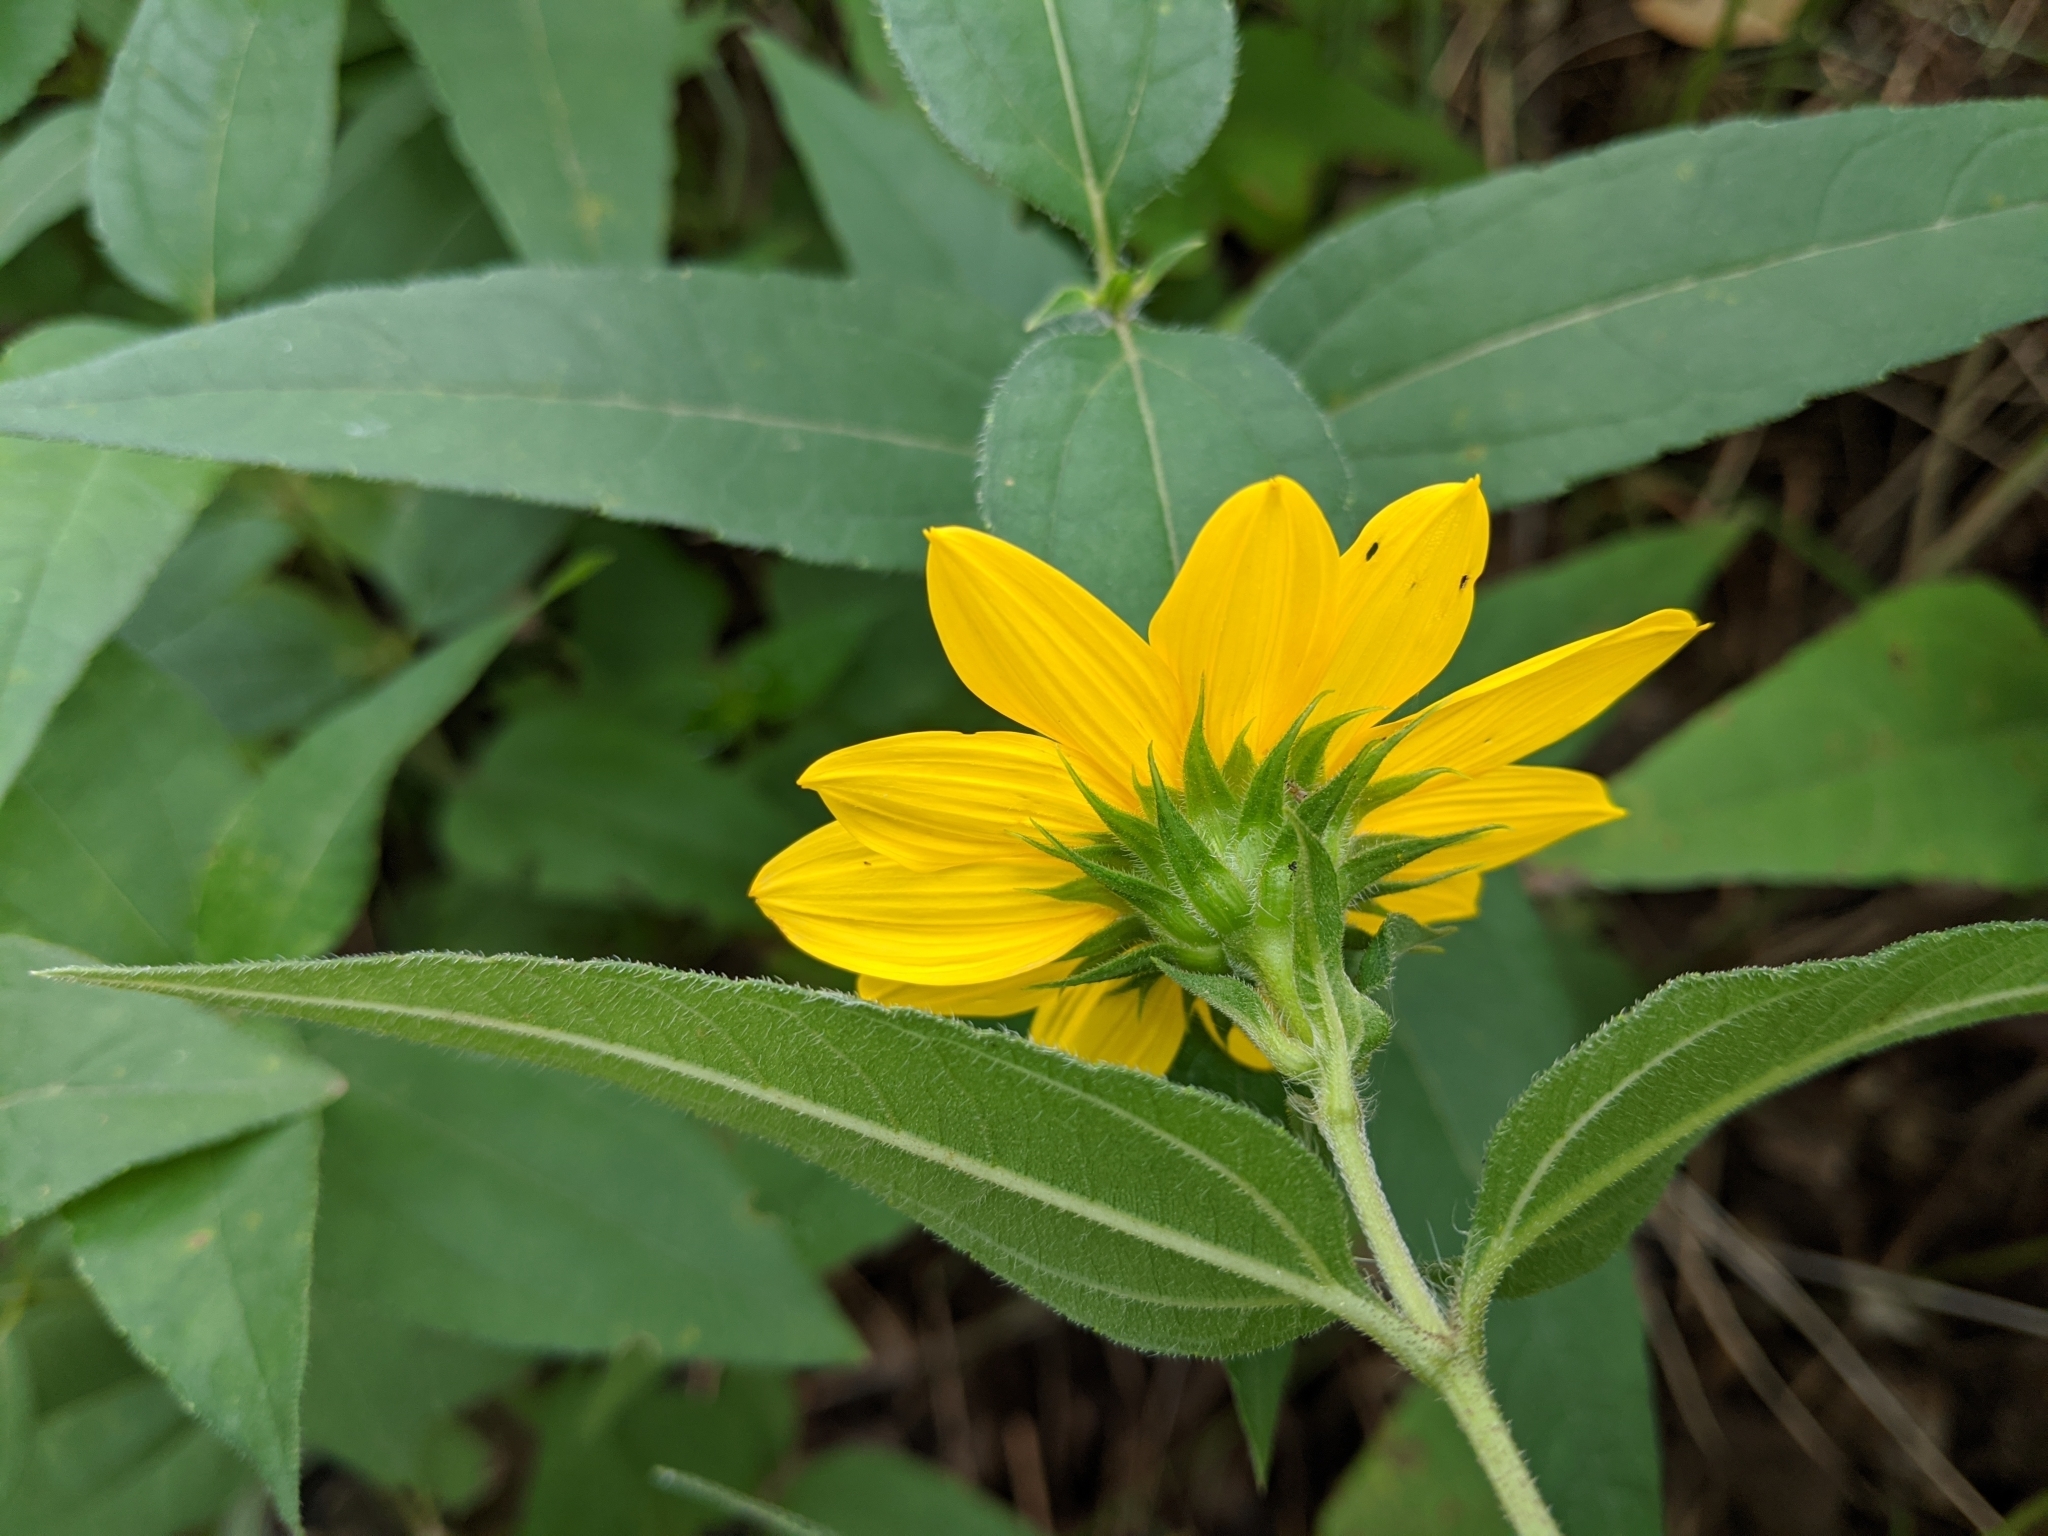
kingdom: Plantae
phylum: Tracheophyta
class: Magnoliopsida
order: Asterales
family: Asteraceae
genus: Helianthus
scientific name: Helianthus hirsutus
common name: Hairy sunflower
